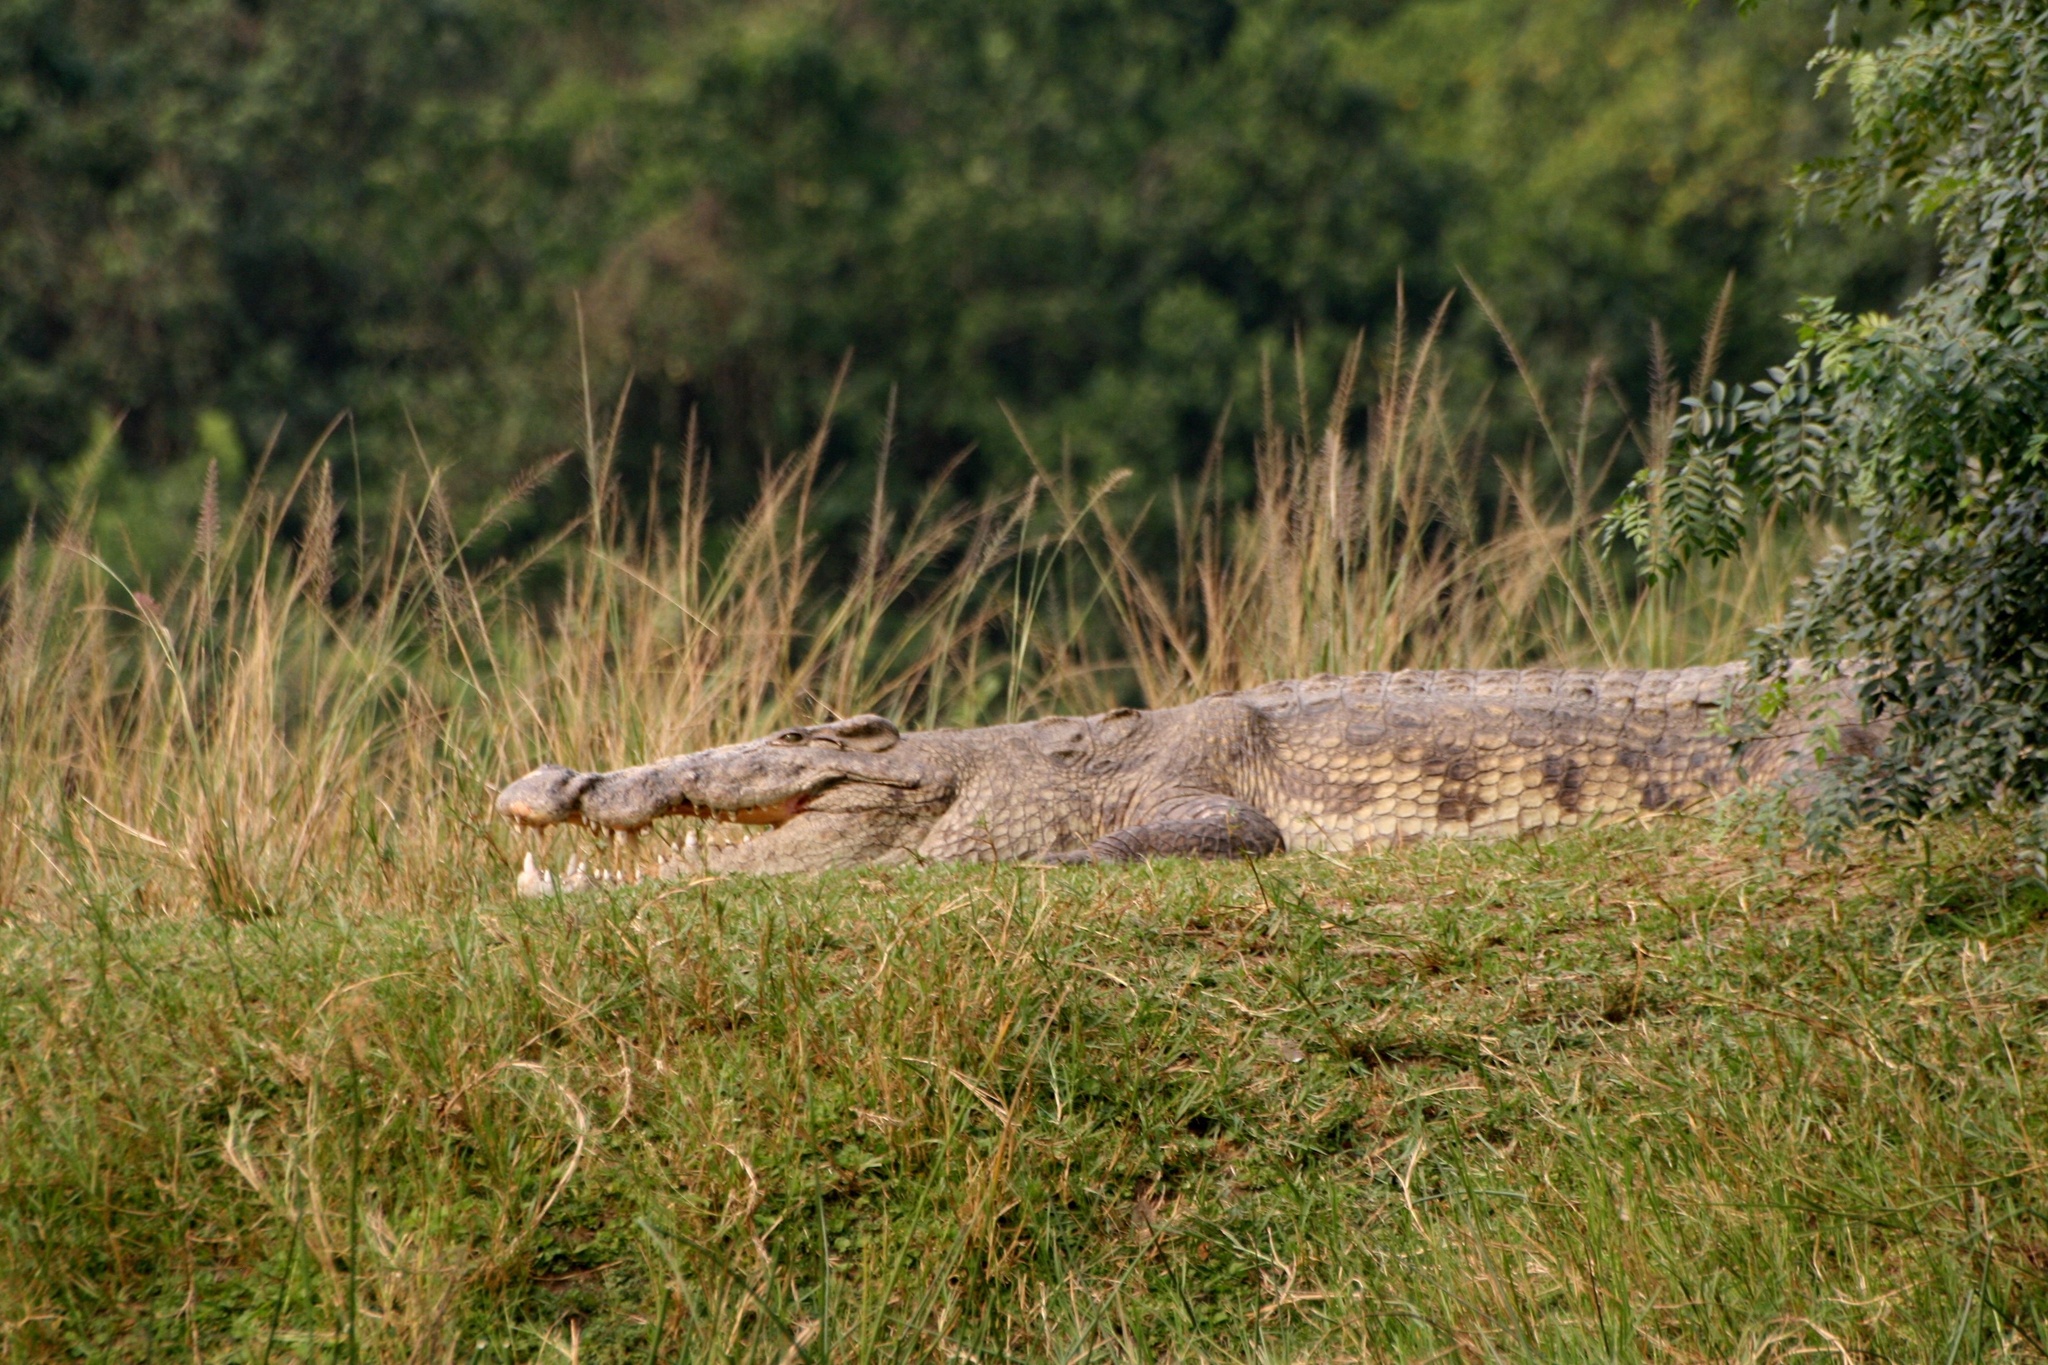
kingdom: Animalia
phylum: Chordata
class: Crocodylia
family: Crocodylidae
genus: Crocodylus
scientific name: Crocodylus niloticus
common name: Nile crocodile
